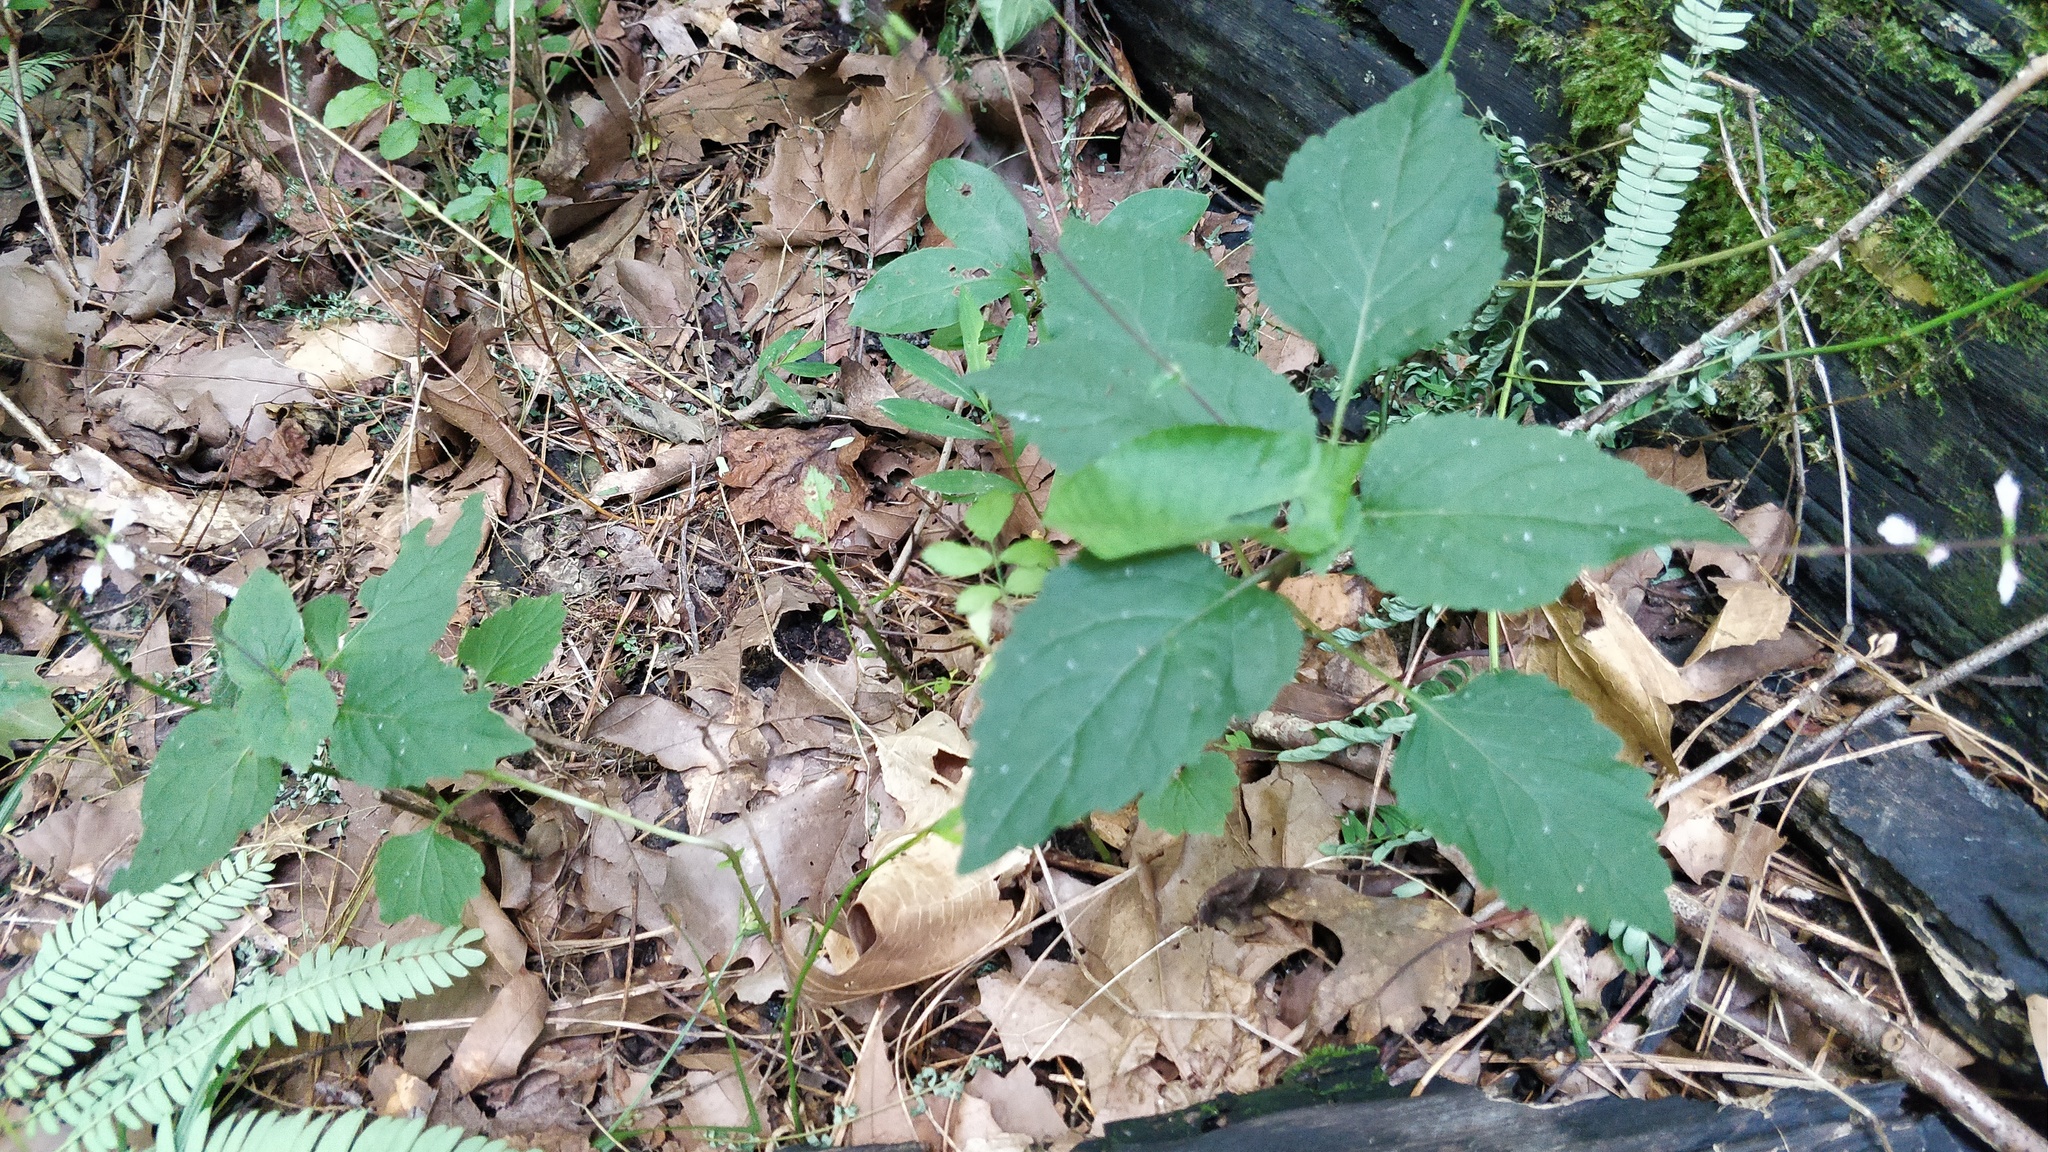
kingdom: Plantae
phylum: Tracheophyta
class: Magnoliopsida
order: Lamiales
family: Phrymaceae
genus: Phryma
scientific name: Phryma leptostachya
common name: American lopseed
